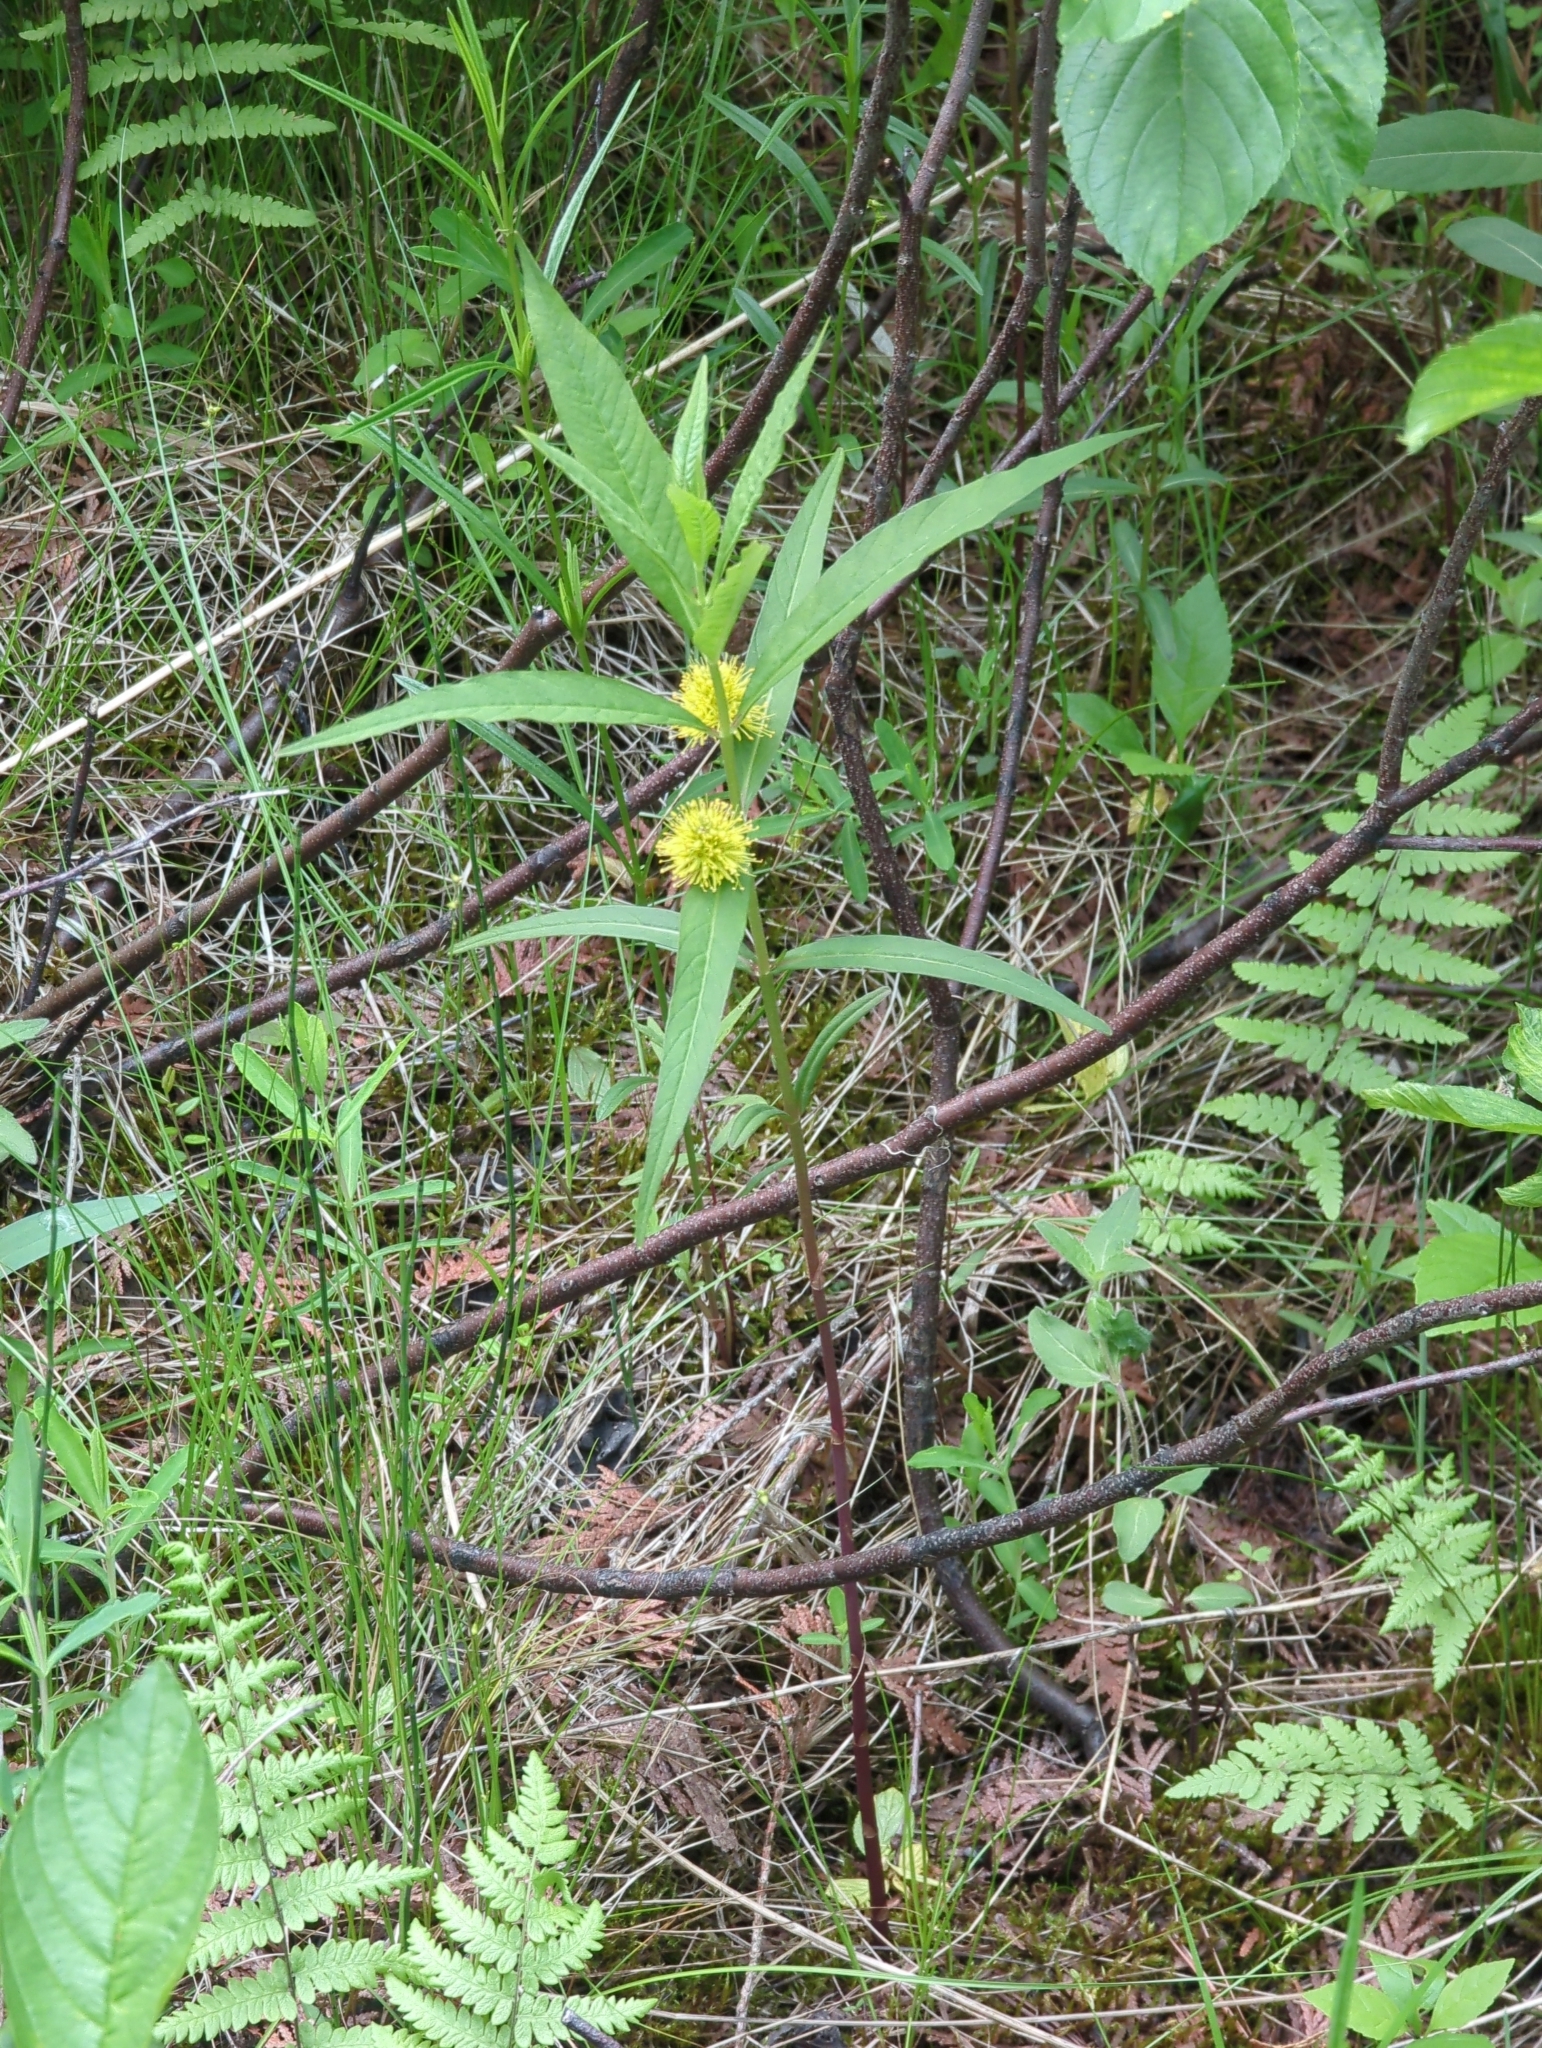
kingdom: Plantae
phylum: Tracheophyta
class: Magnoliopsida
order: Ericales
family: Primulaceae
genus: Lysimachia
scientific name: Lysimachia thyrsiflora
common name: Tufted loosestrife
